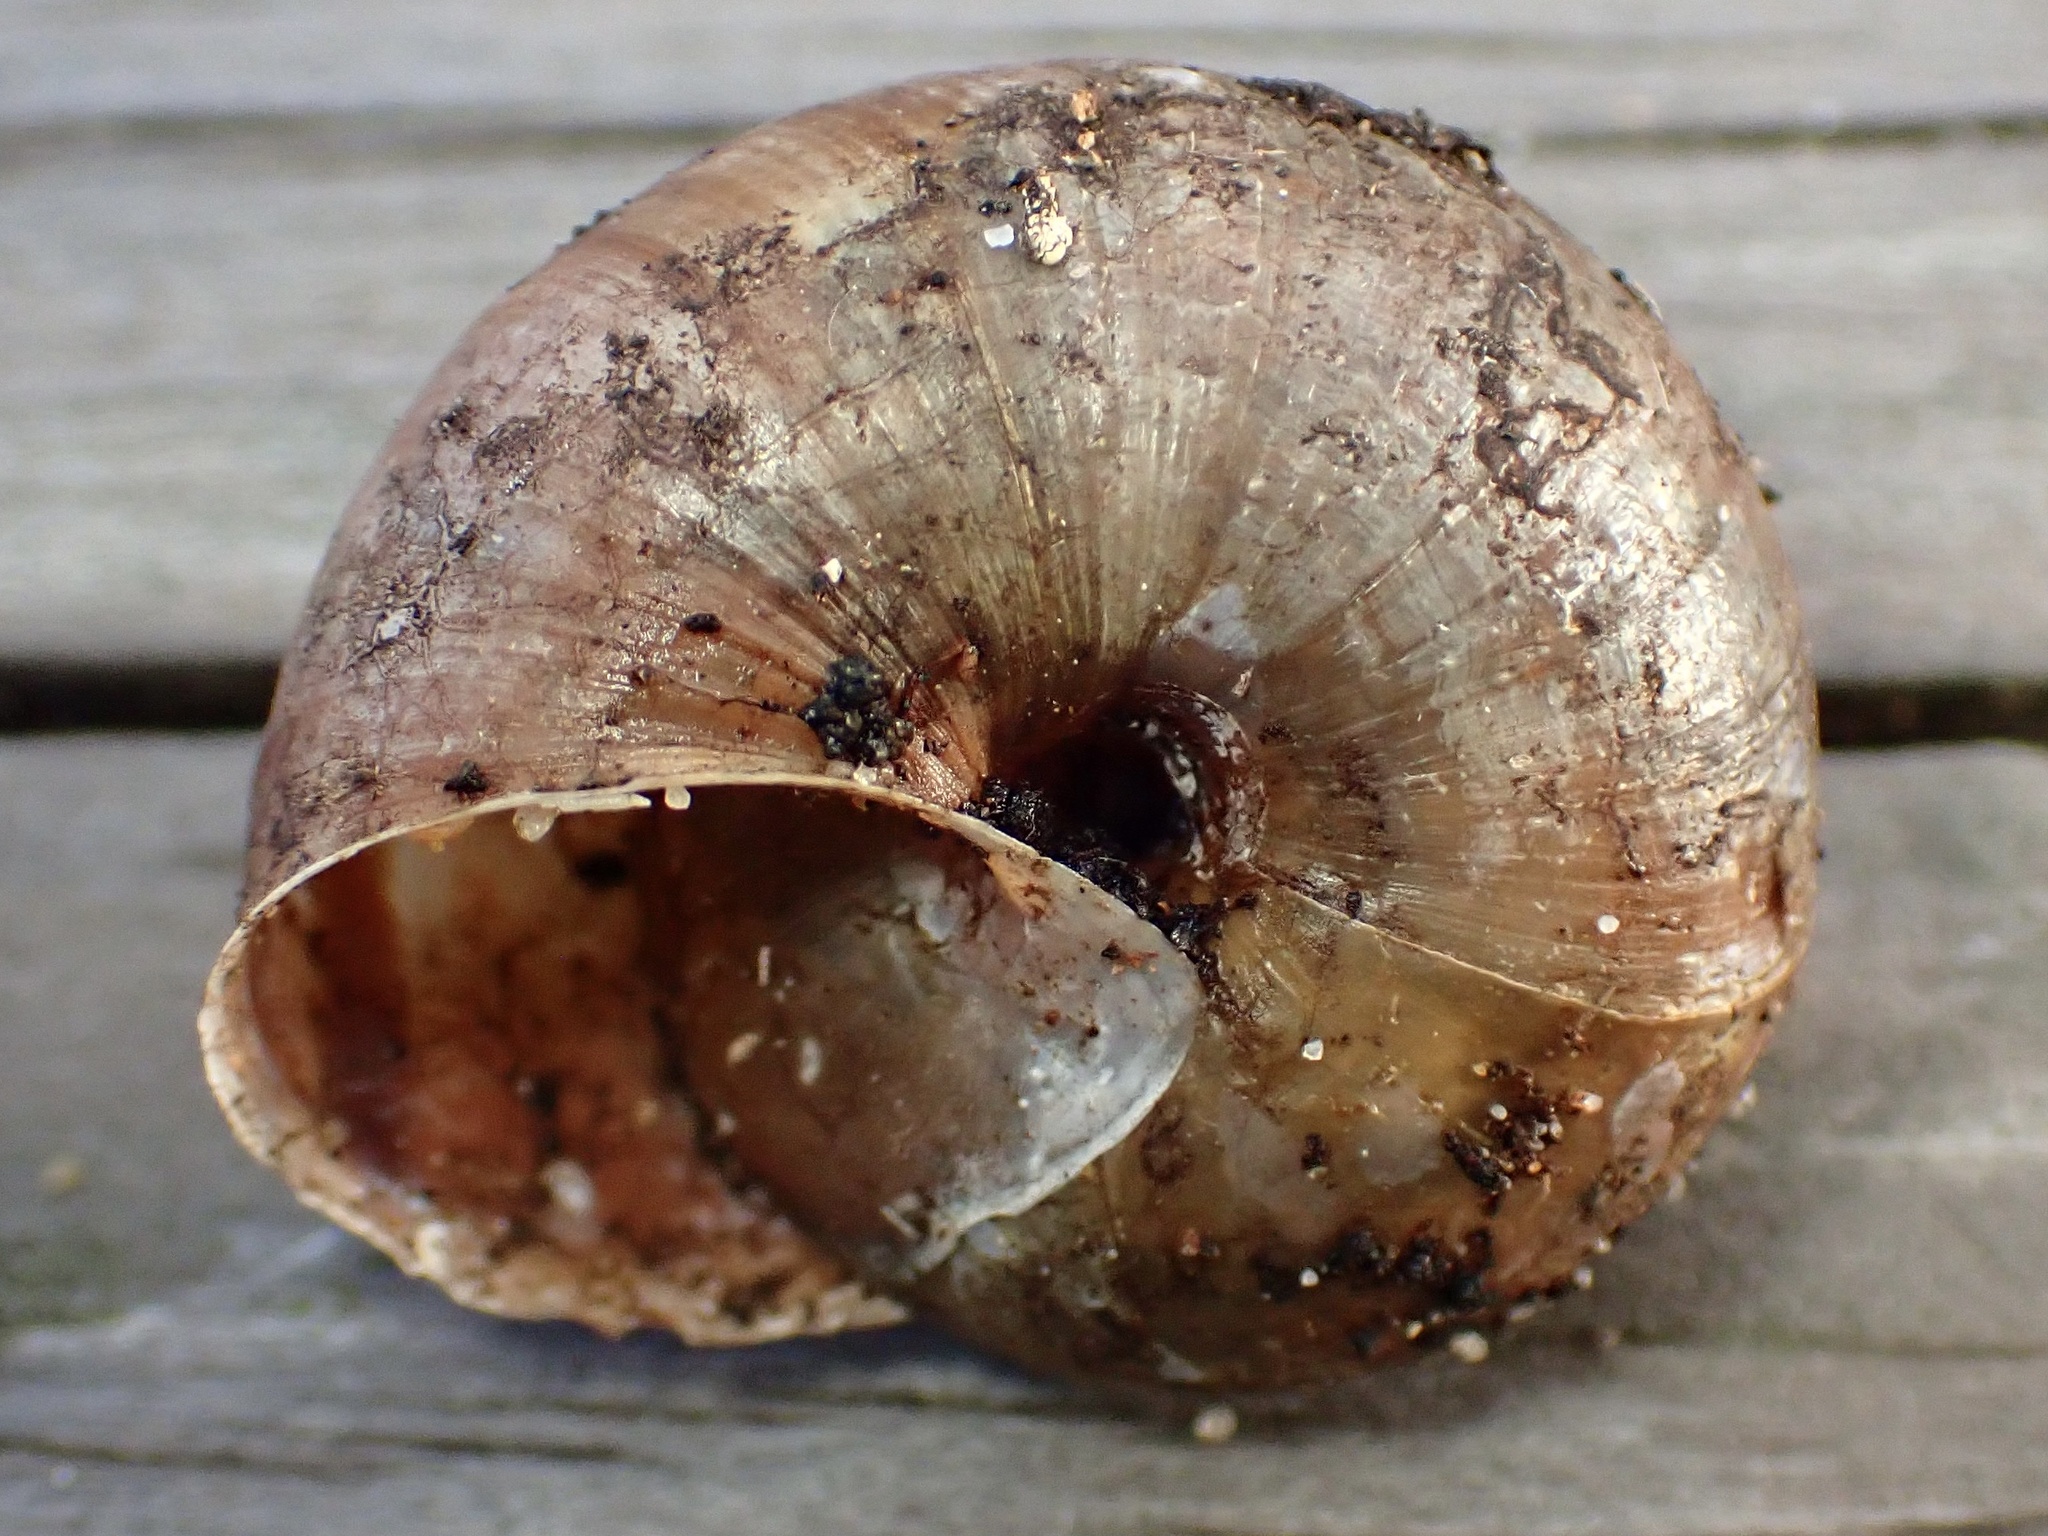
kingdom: Animalia
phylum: Mollusca
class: Gastropoda
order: Stylommatophora
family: Xanthonychidae
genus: Helminthoglypta
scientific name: Helminthoglypta umbilicata
